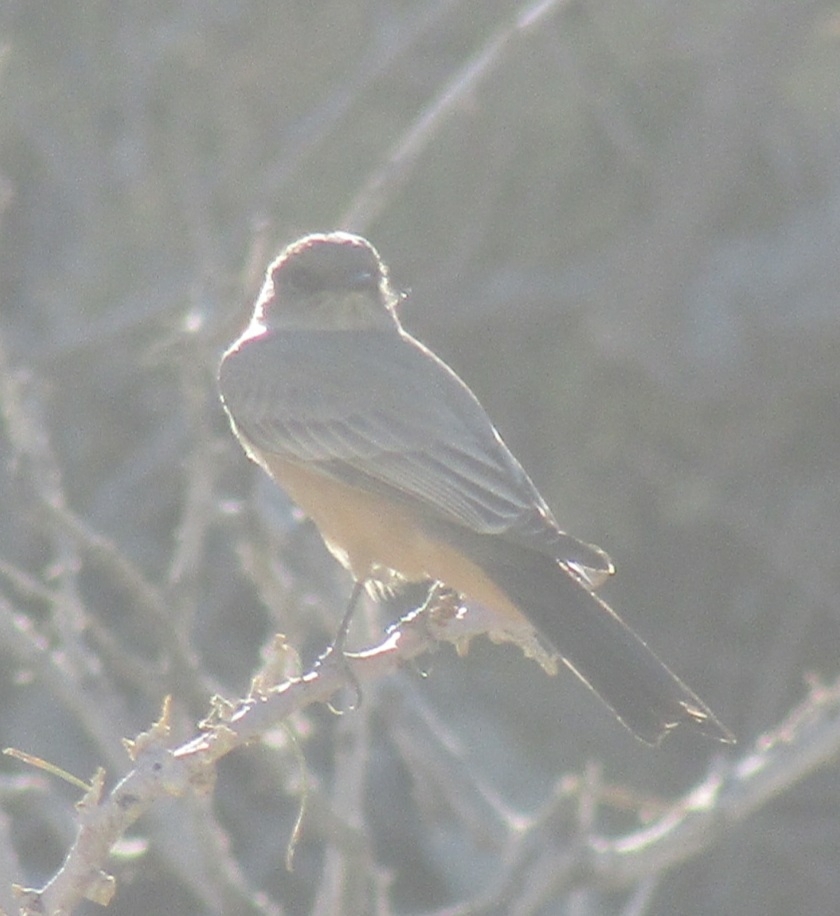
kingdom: Animalia
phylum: Chordata
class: Aves
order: Passeriformes
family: Tyrannidae
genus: Sayornis
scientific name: Sayornis saya
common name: Say's phoebe
